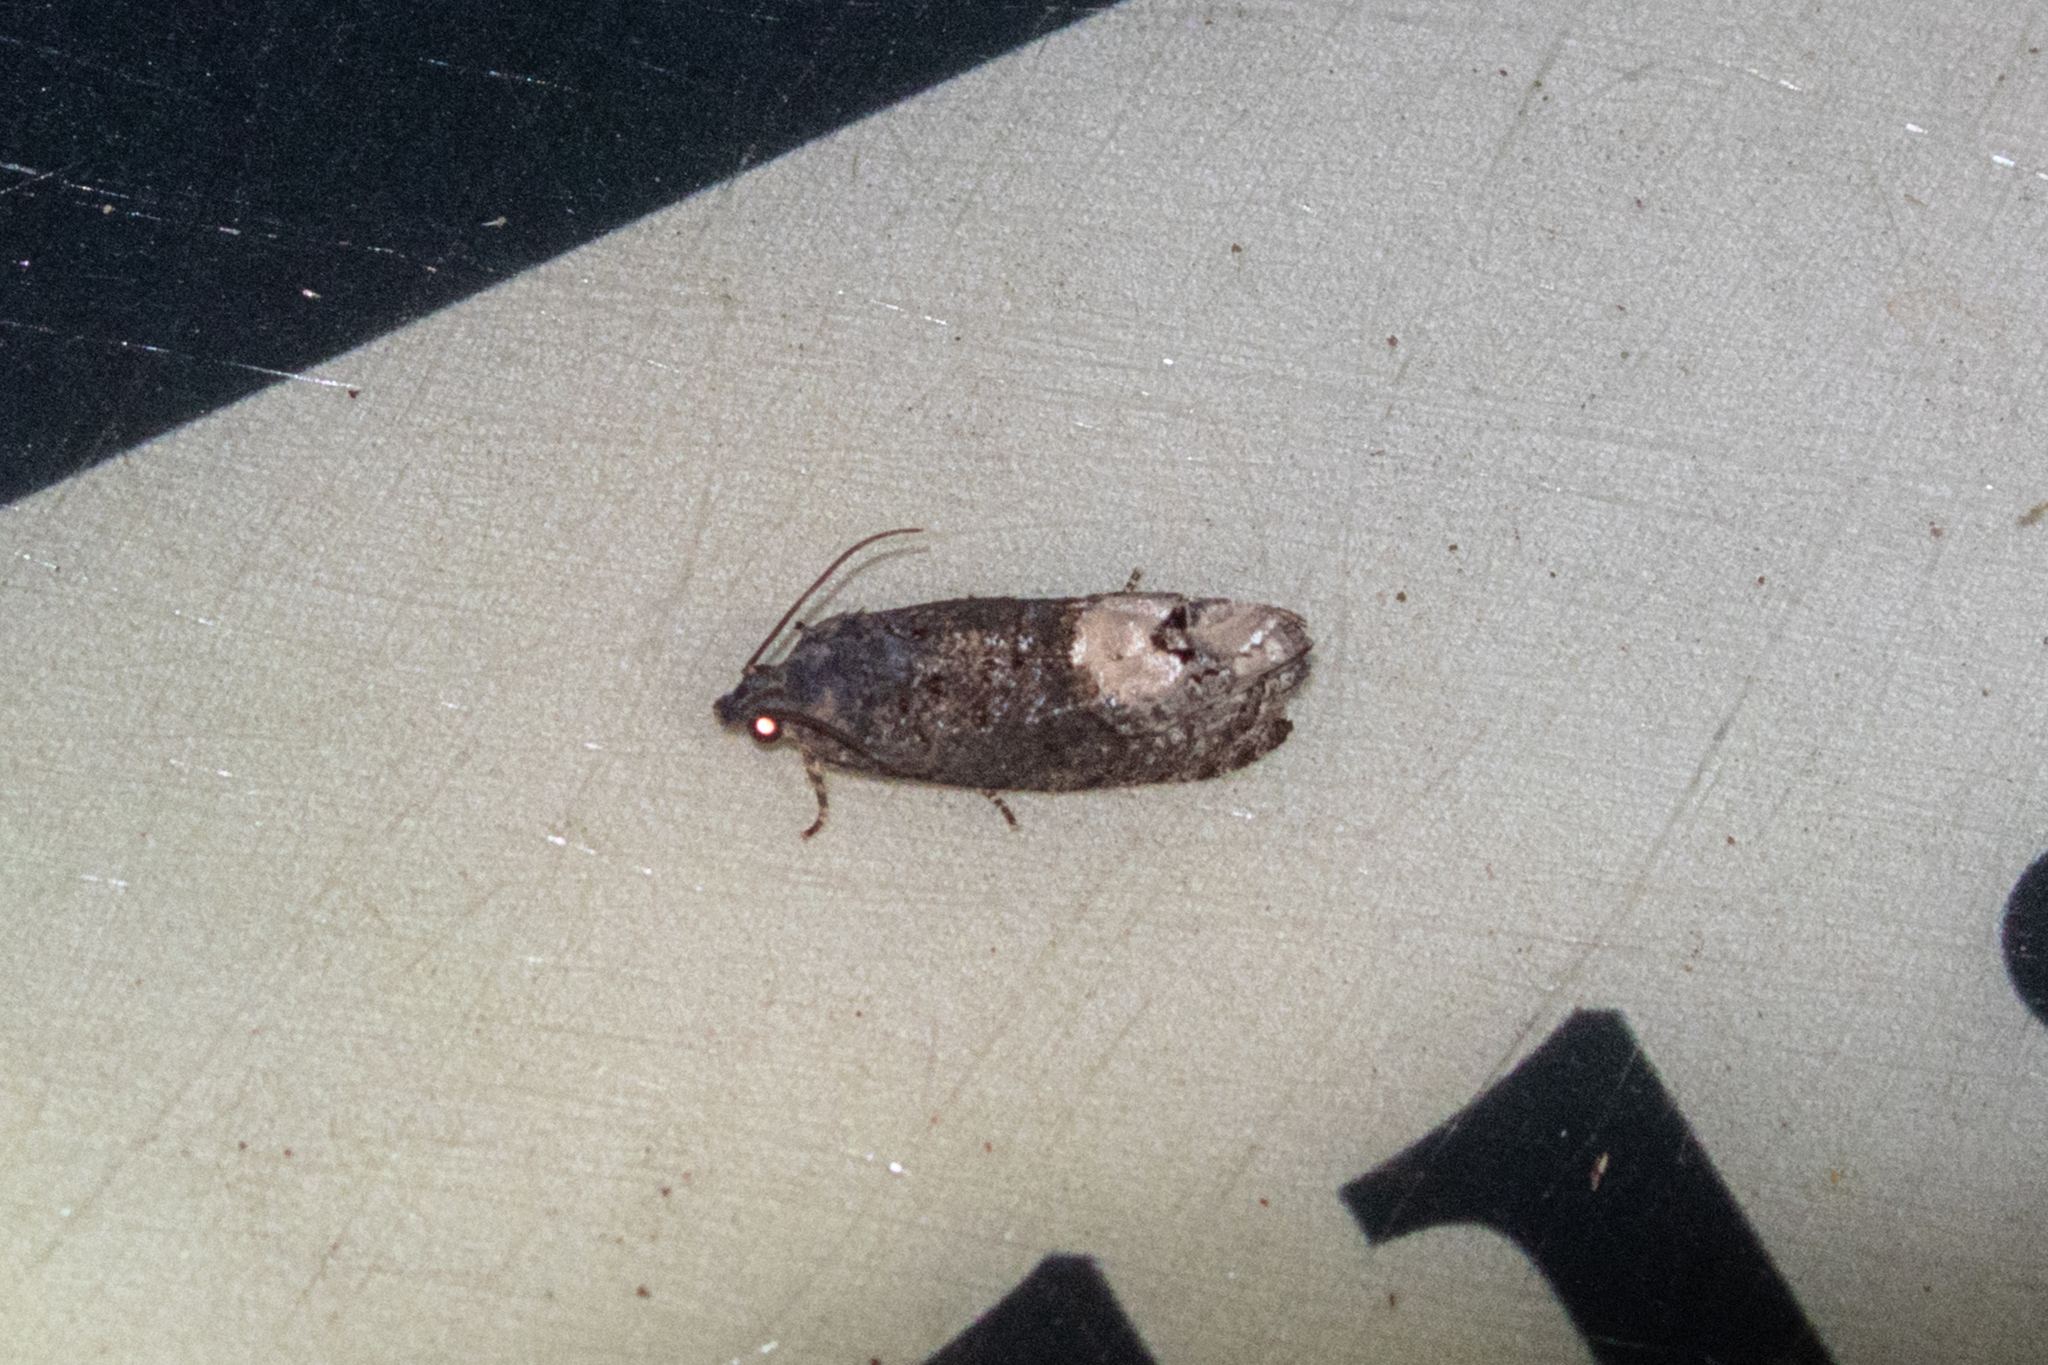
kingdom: Animalia
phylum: Arthropoda
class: Insecta
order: Lepidoptera
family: Tortricidae
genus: Ecdytolopha
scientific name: Ecdytolopha insiticiana
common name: Locust twig borer moth
